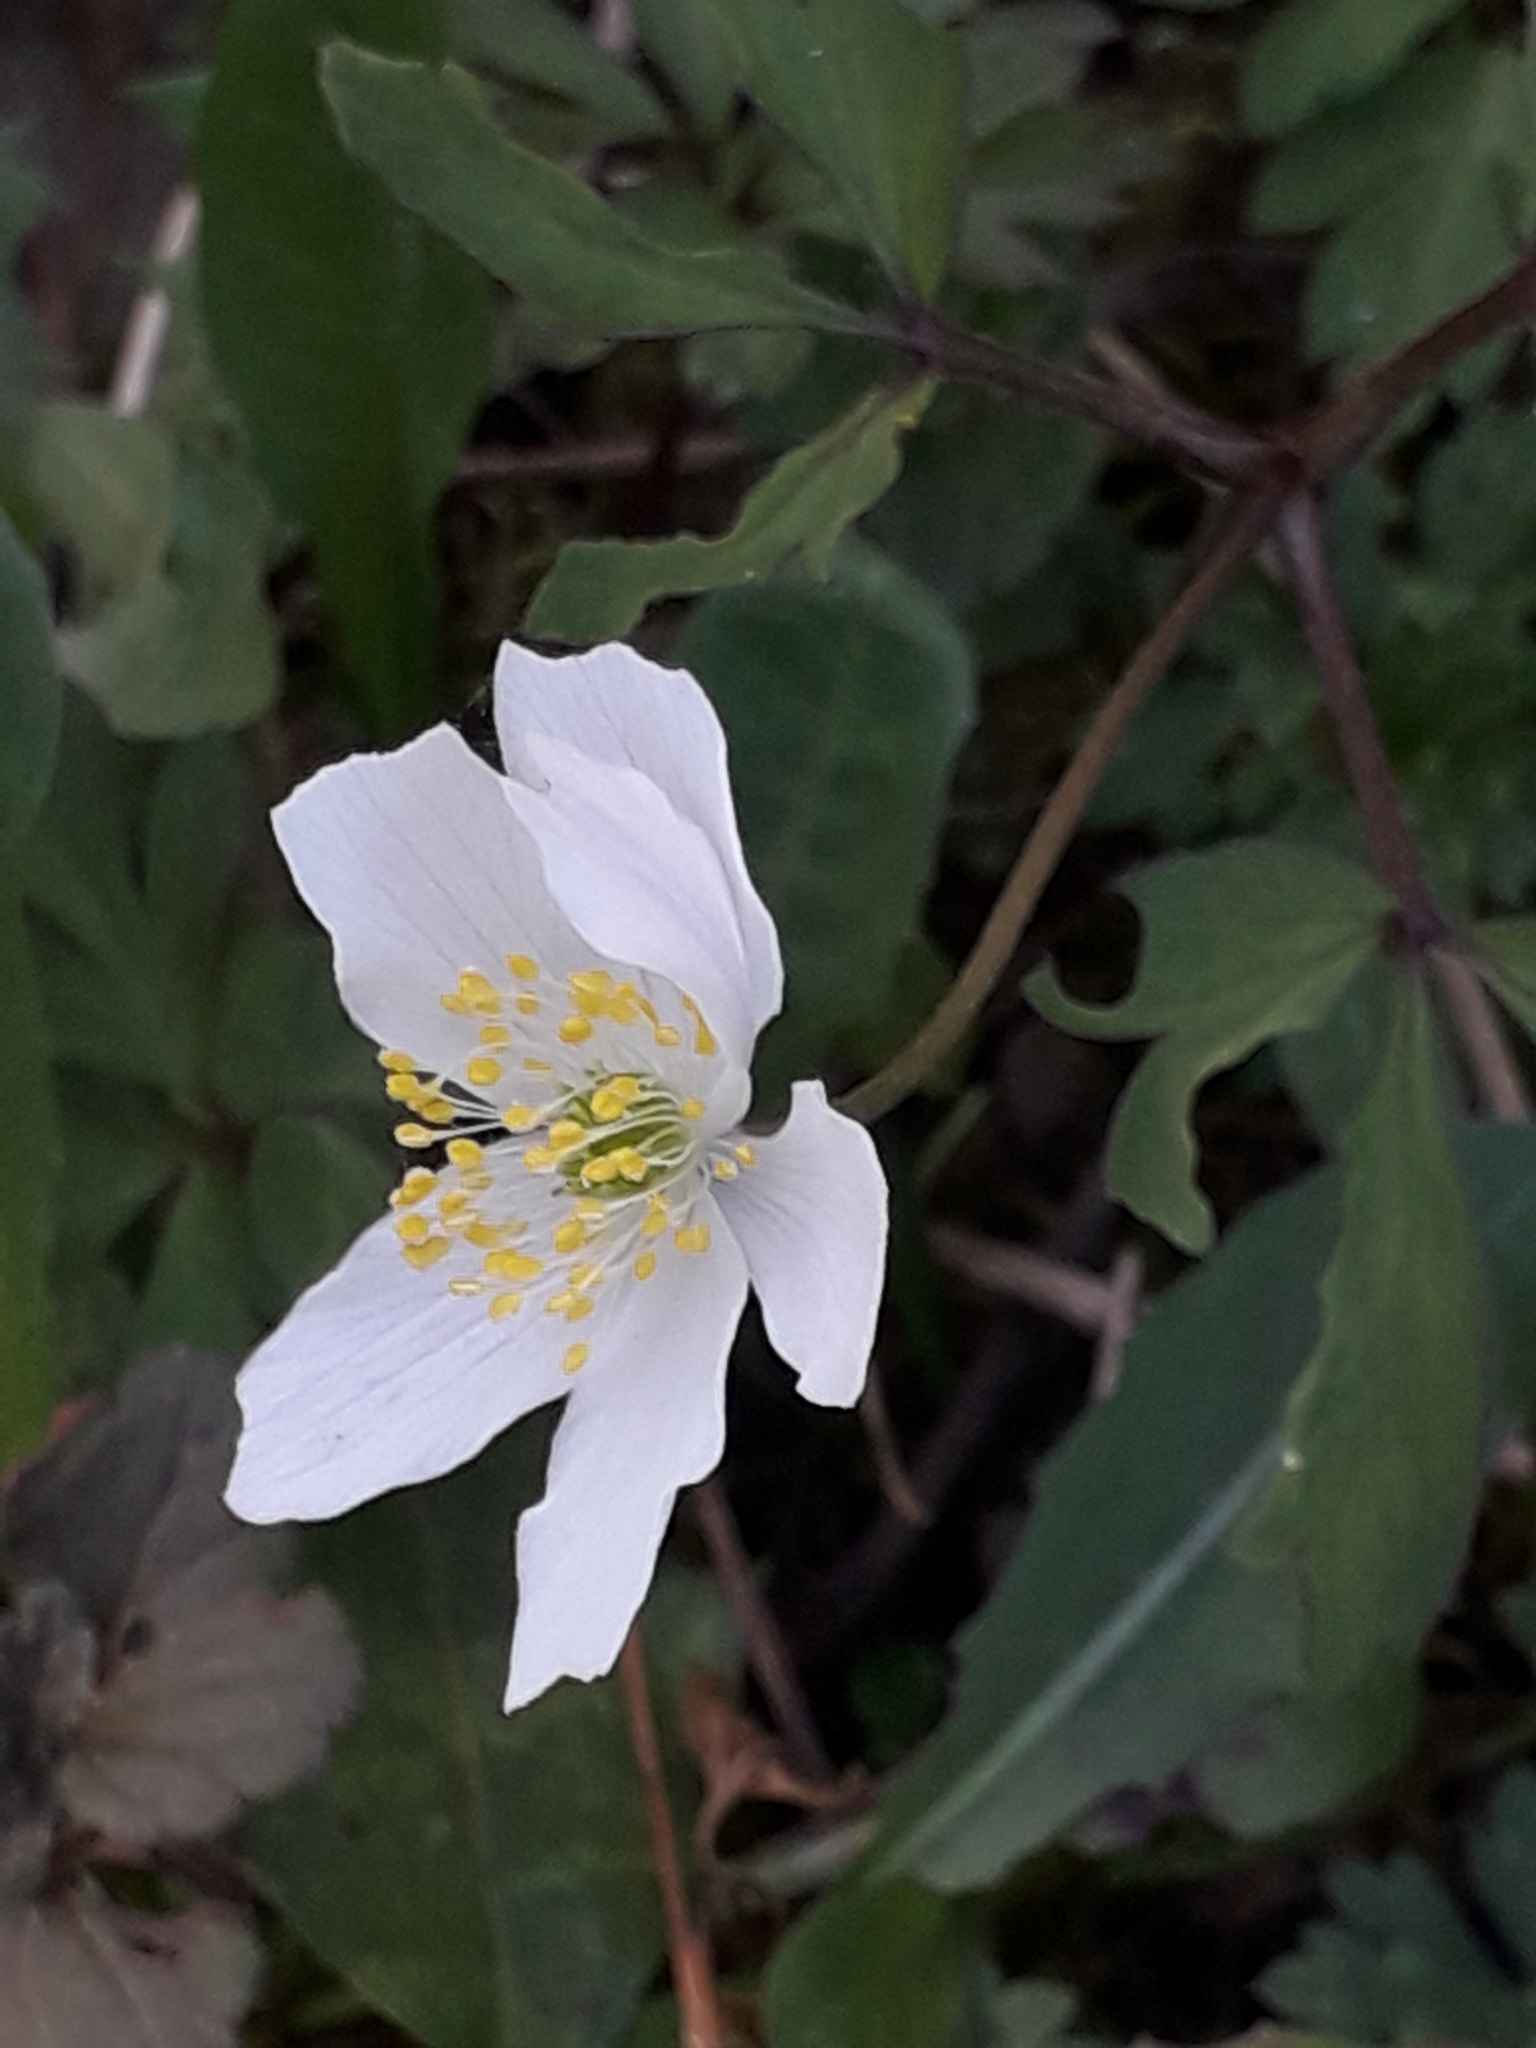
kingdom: Plantae
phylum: Tracheophyta
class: Magnoliopsida
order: Ranunculales
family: Ranunculaceae
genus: Anemone
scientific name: Anemone nemorosa
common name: Wood anemone
